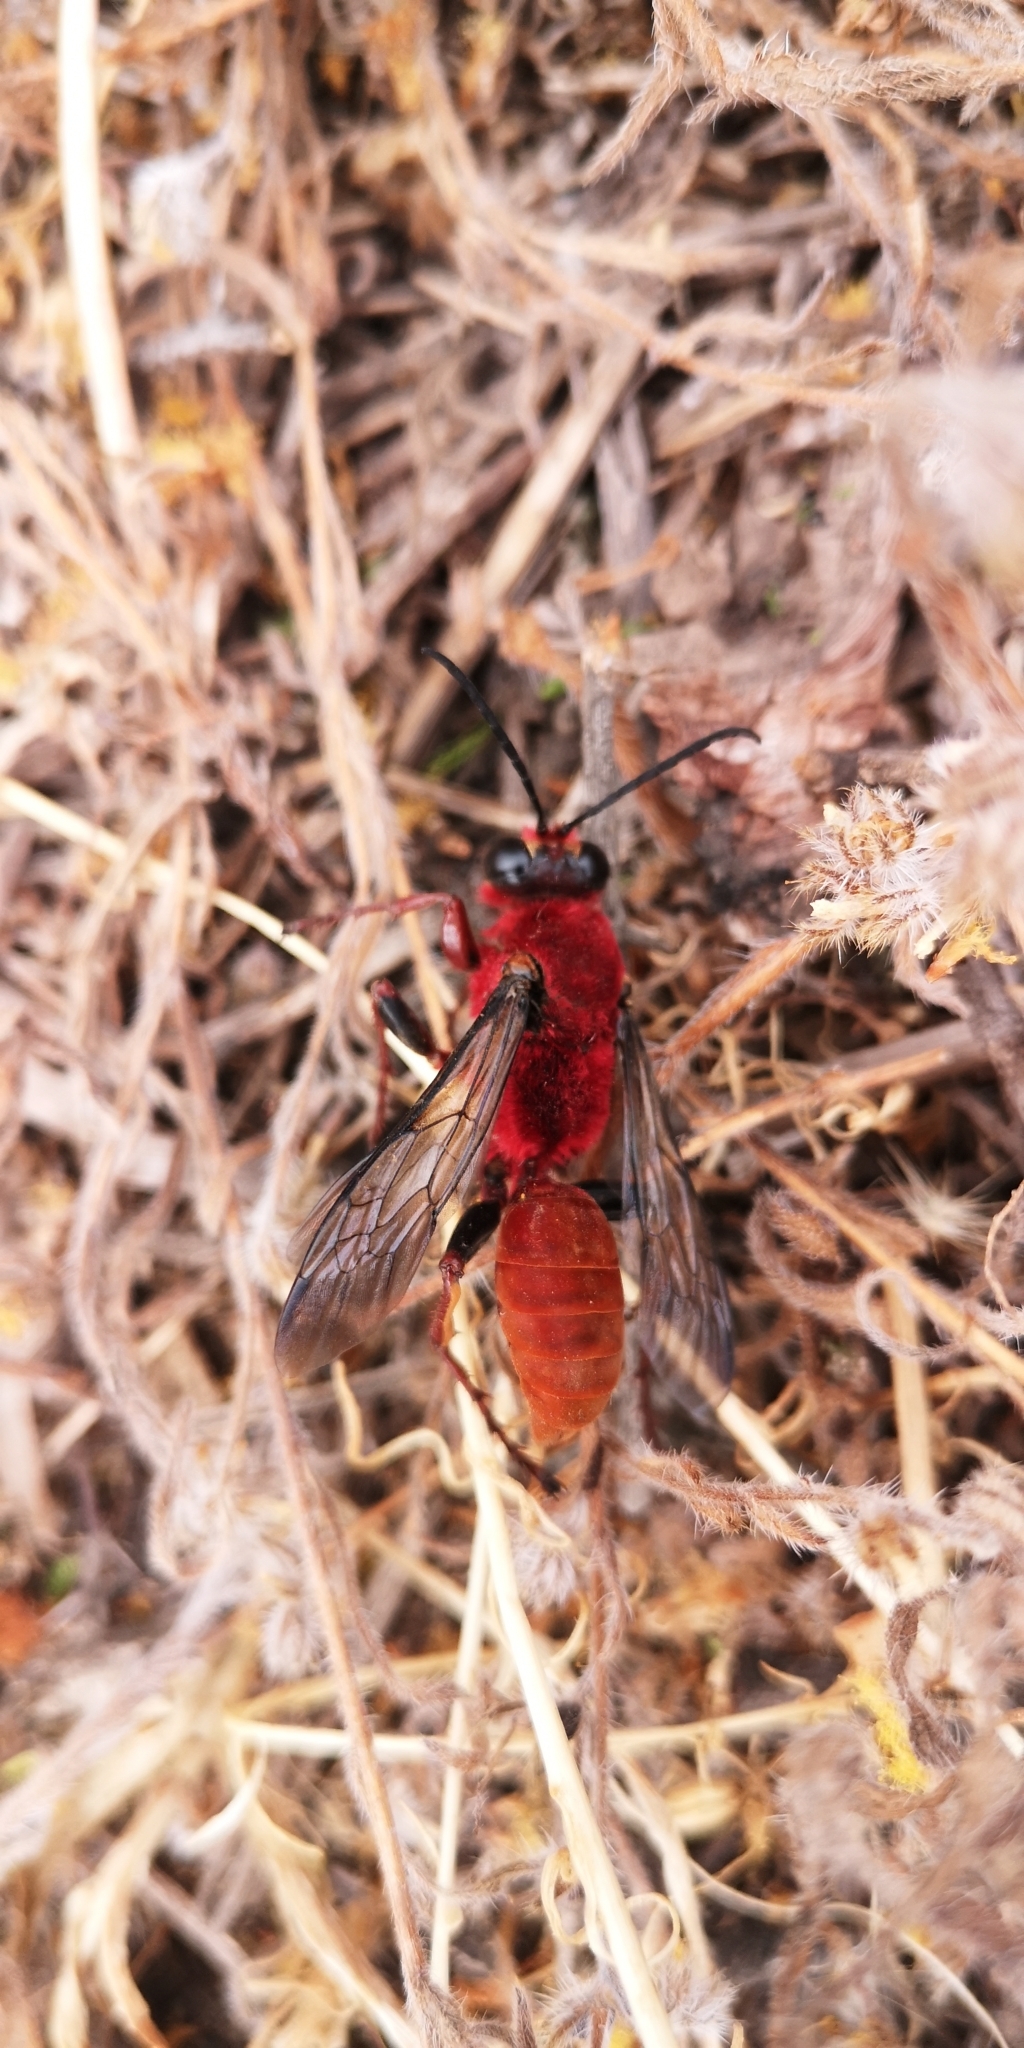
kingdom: Animalia
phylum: Arthropoda
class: Insecta
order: Hymenoptera
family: Sphecidae
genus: Sphex
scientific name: Sphex latreillei
